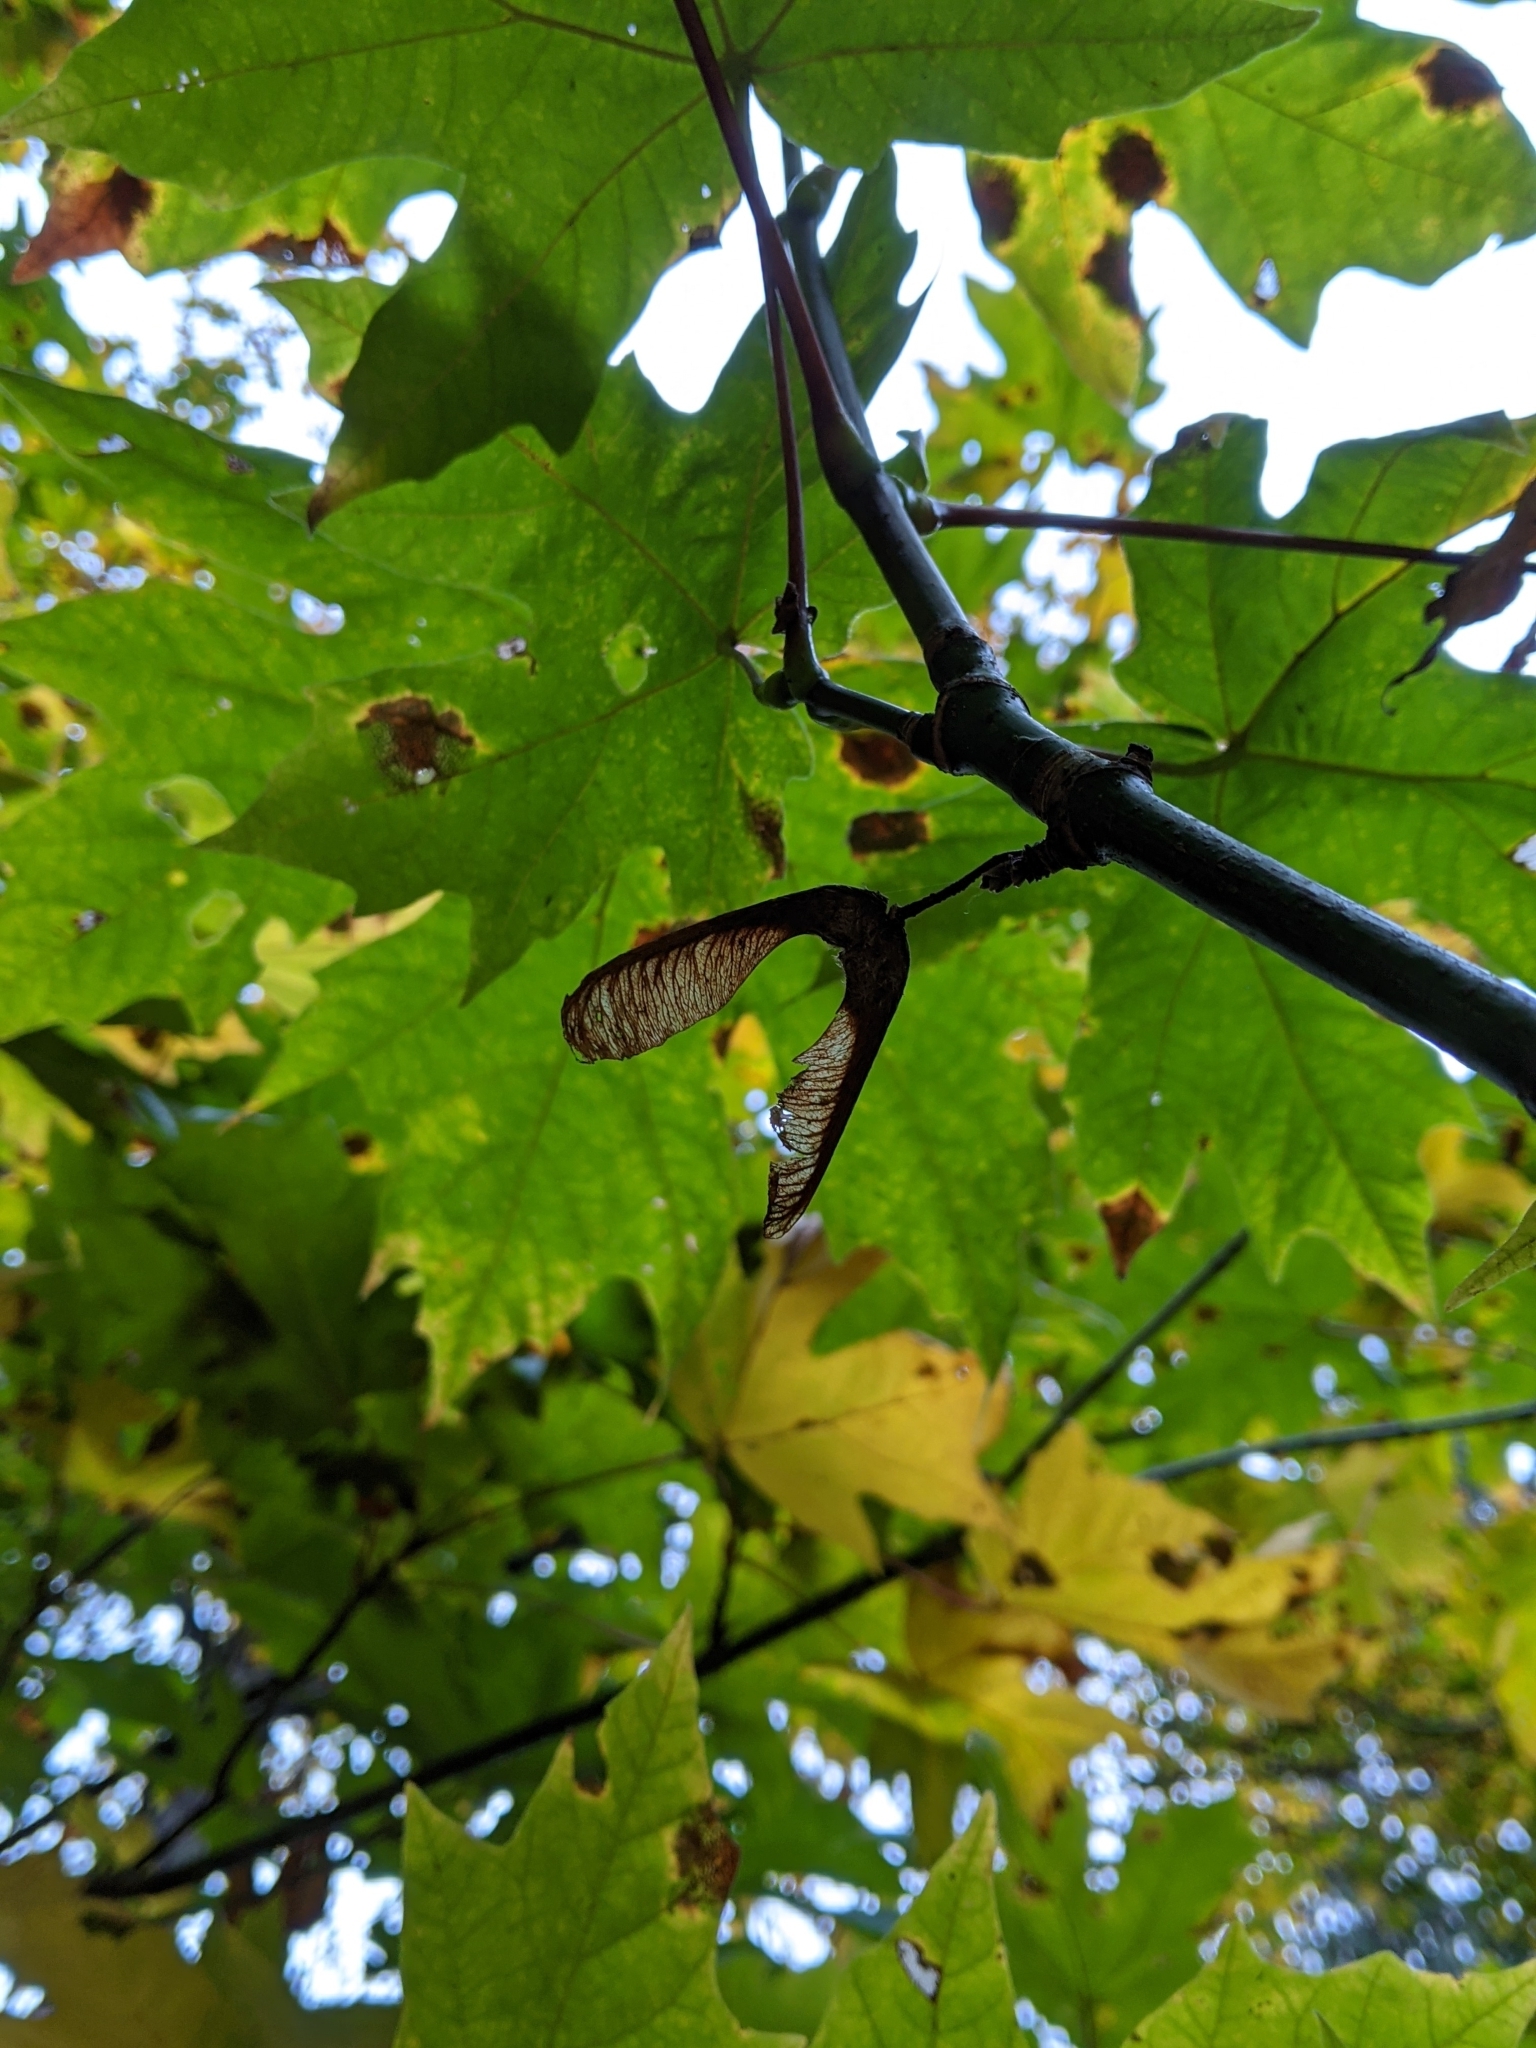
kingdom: Plantae
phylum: Tracheophyta
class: Magnoliopsida
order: Sapindales
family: Sapindaceae
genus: Acer
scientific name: Acer macrophyllum
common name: Oregon maple
